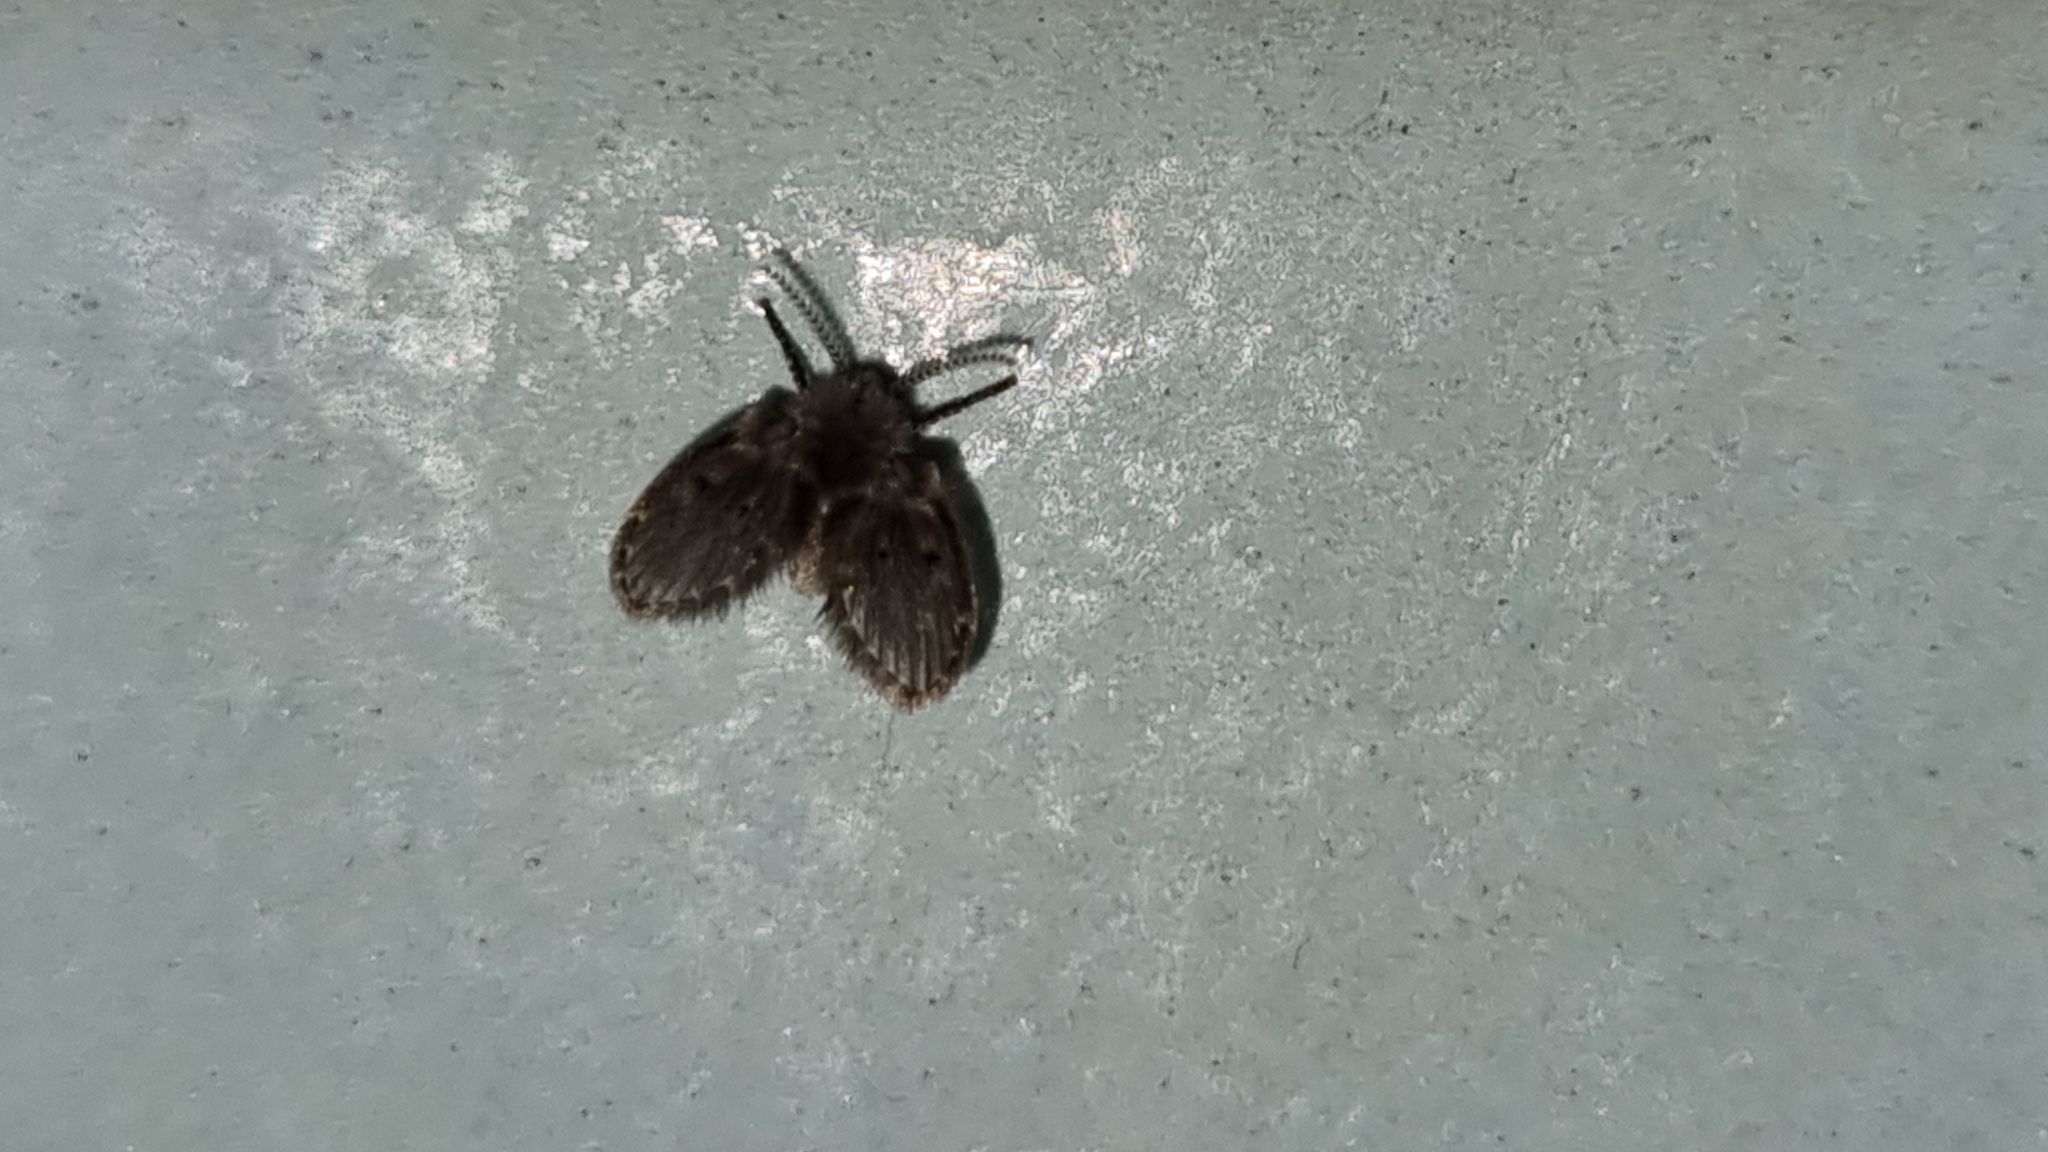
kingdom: Animalia
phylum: Arthropoda
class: Insecta
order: Diptera
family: Psychodidae
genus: Clogmia
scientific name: Clogmia albipunctatus
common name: White-spotted moth fly
